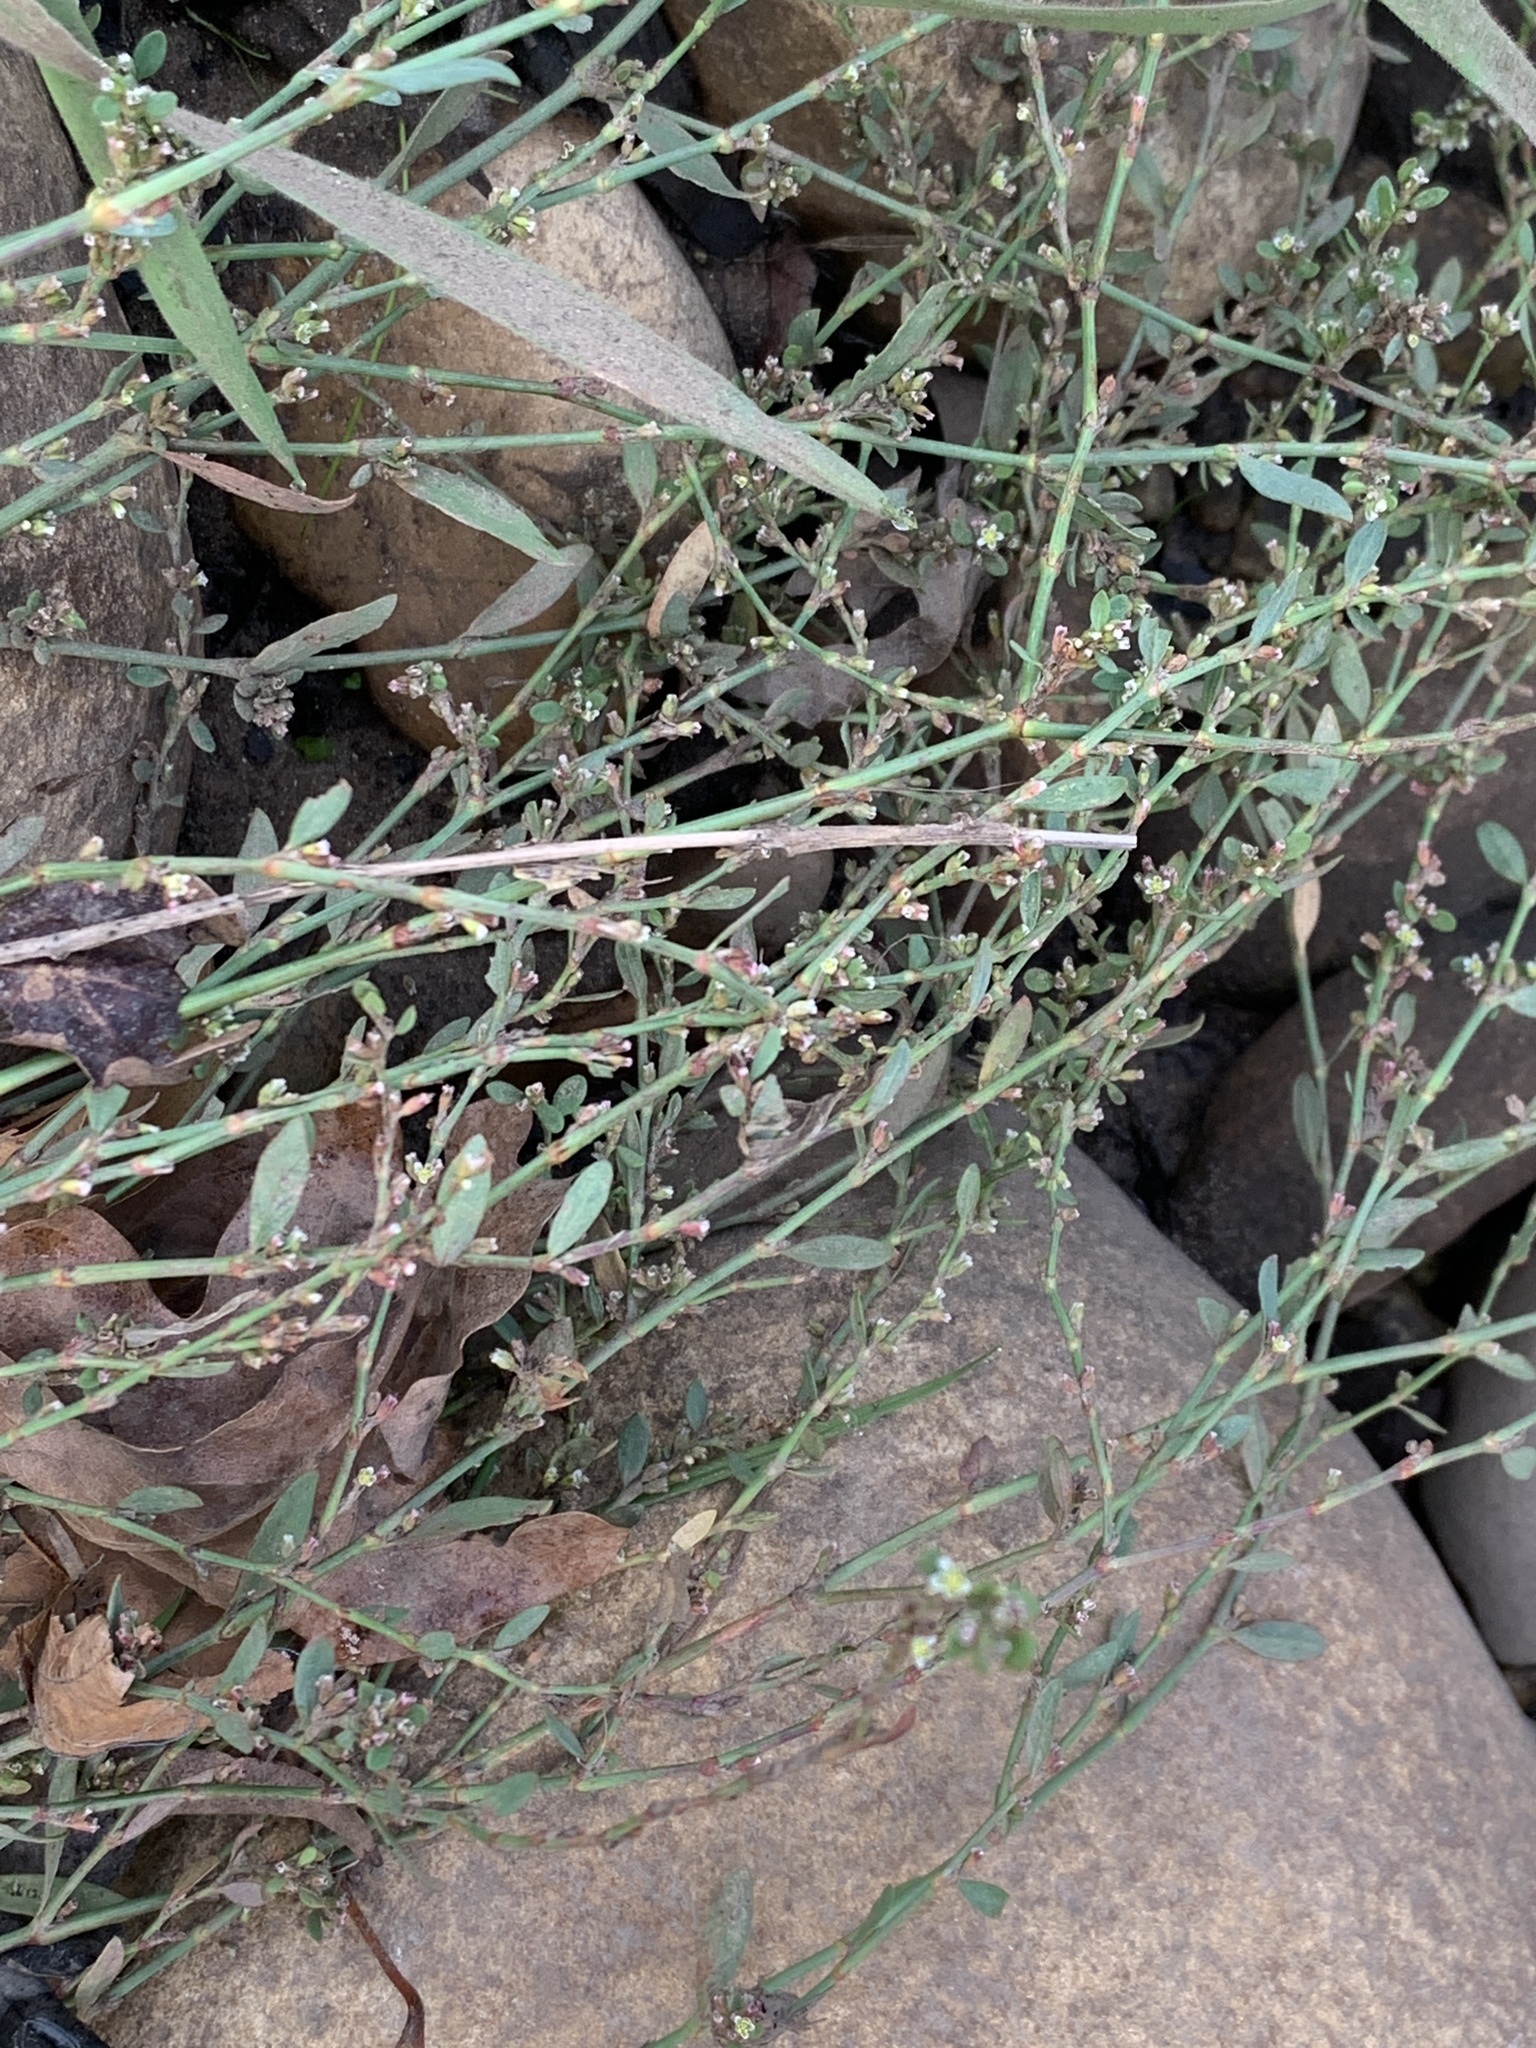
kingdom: Plantae
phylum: Tracheophyta
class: Magnoliopsida
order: Caryophyllales
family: Polygonaceae
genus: Polygonum
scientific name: Polygonum aviculare
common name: Prostrate knotweed
